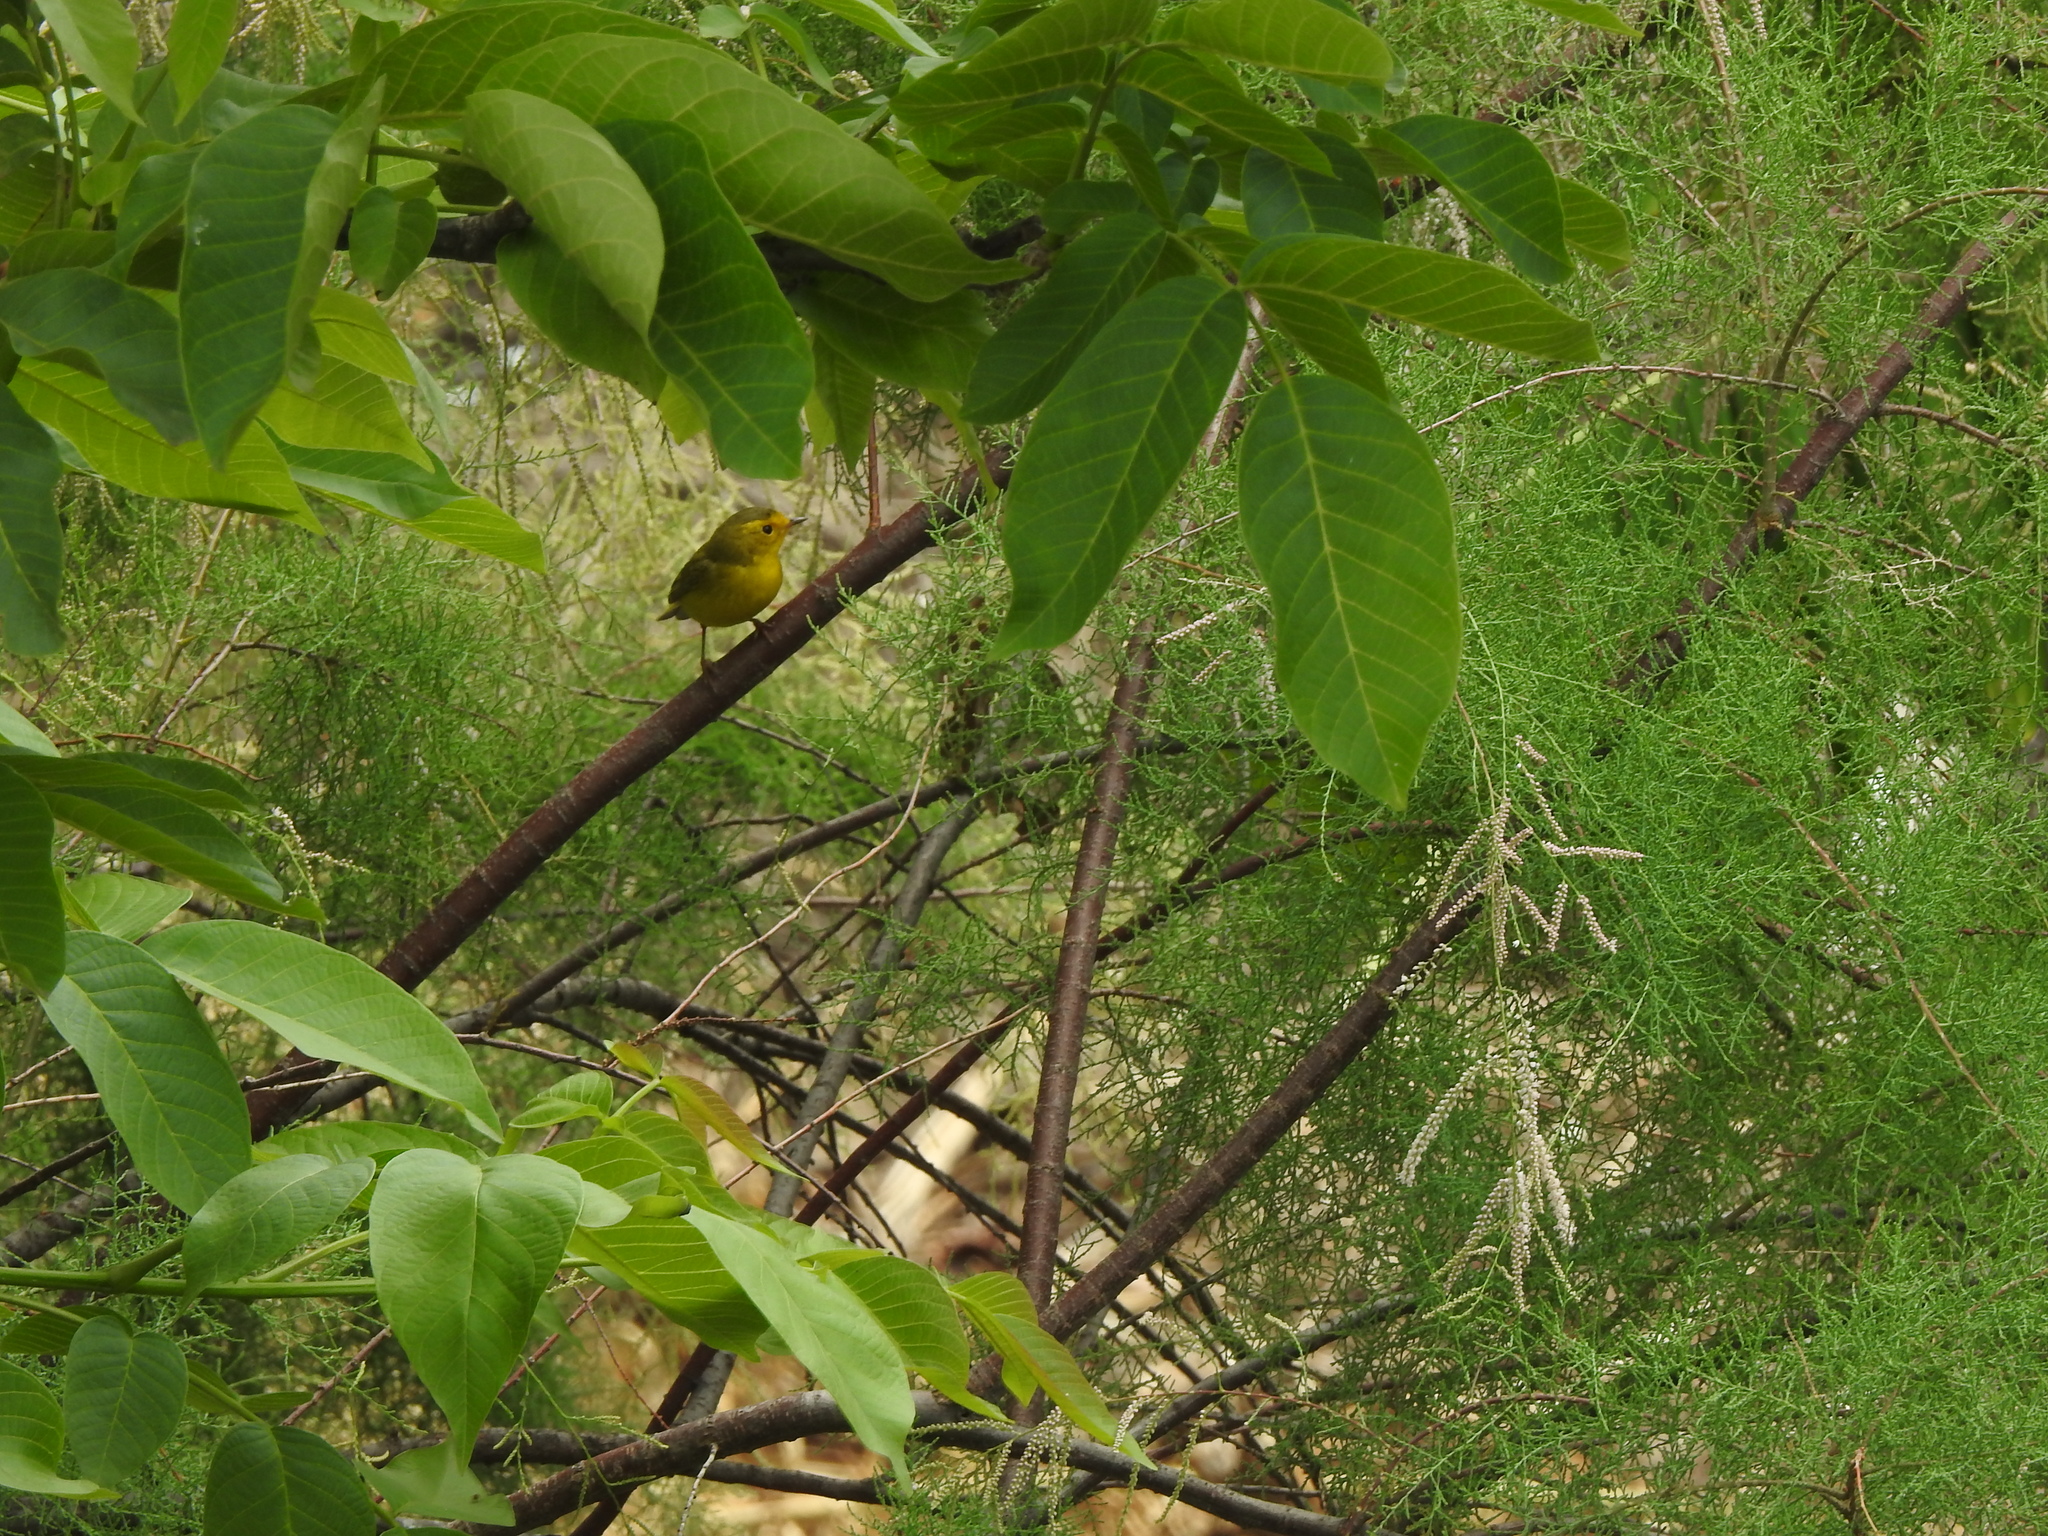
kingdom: Animalia
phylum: Chordata
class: Aves
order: Passeriformes
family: Parulidae
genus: Cardellina
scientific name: Cardellina pusilla
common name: Wilson's warbler
